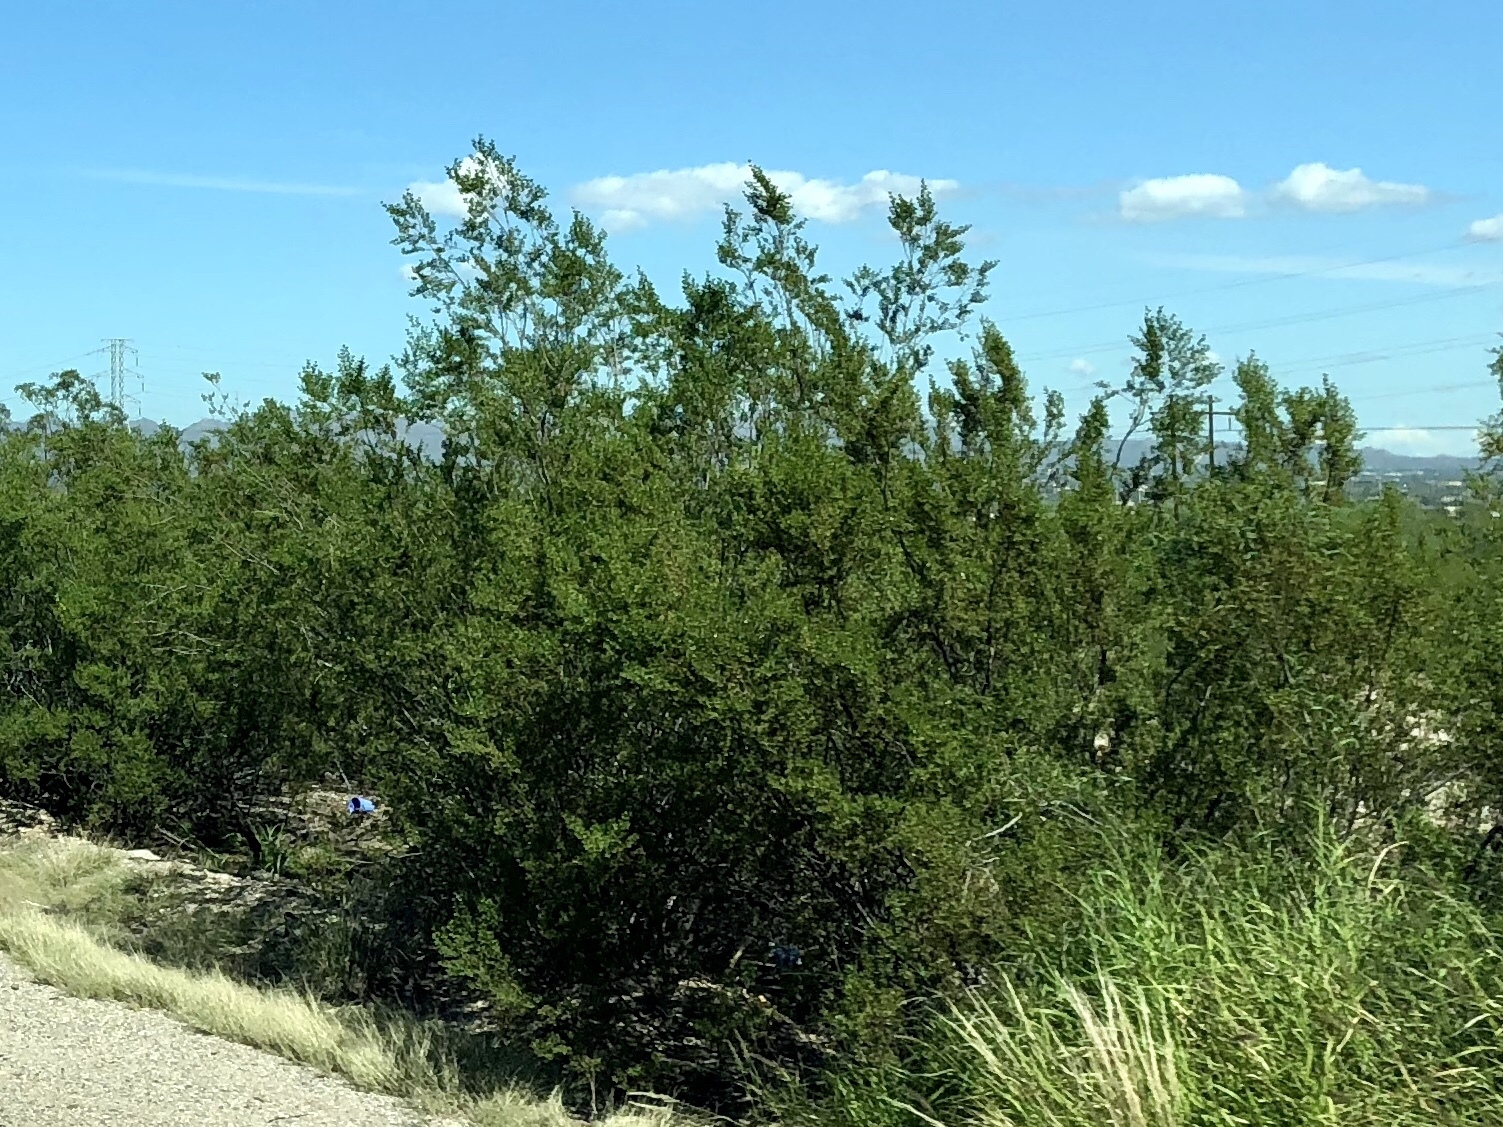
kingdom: Plantae
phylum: Tracheophyta
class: Magnoliopsida
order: Zygophyllales
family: Zygophyllaceae
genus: Larrea
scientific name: Larrea tridentata
